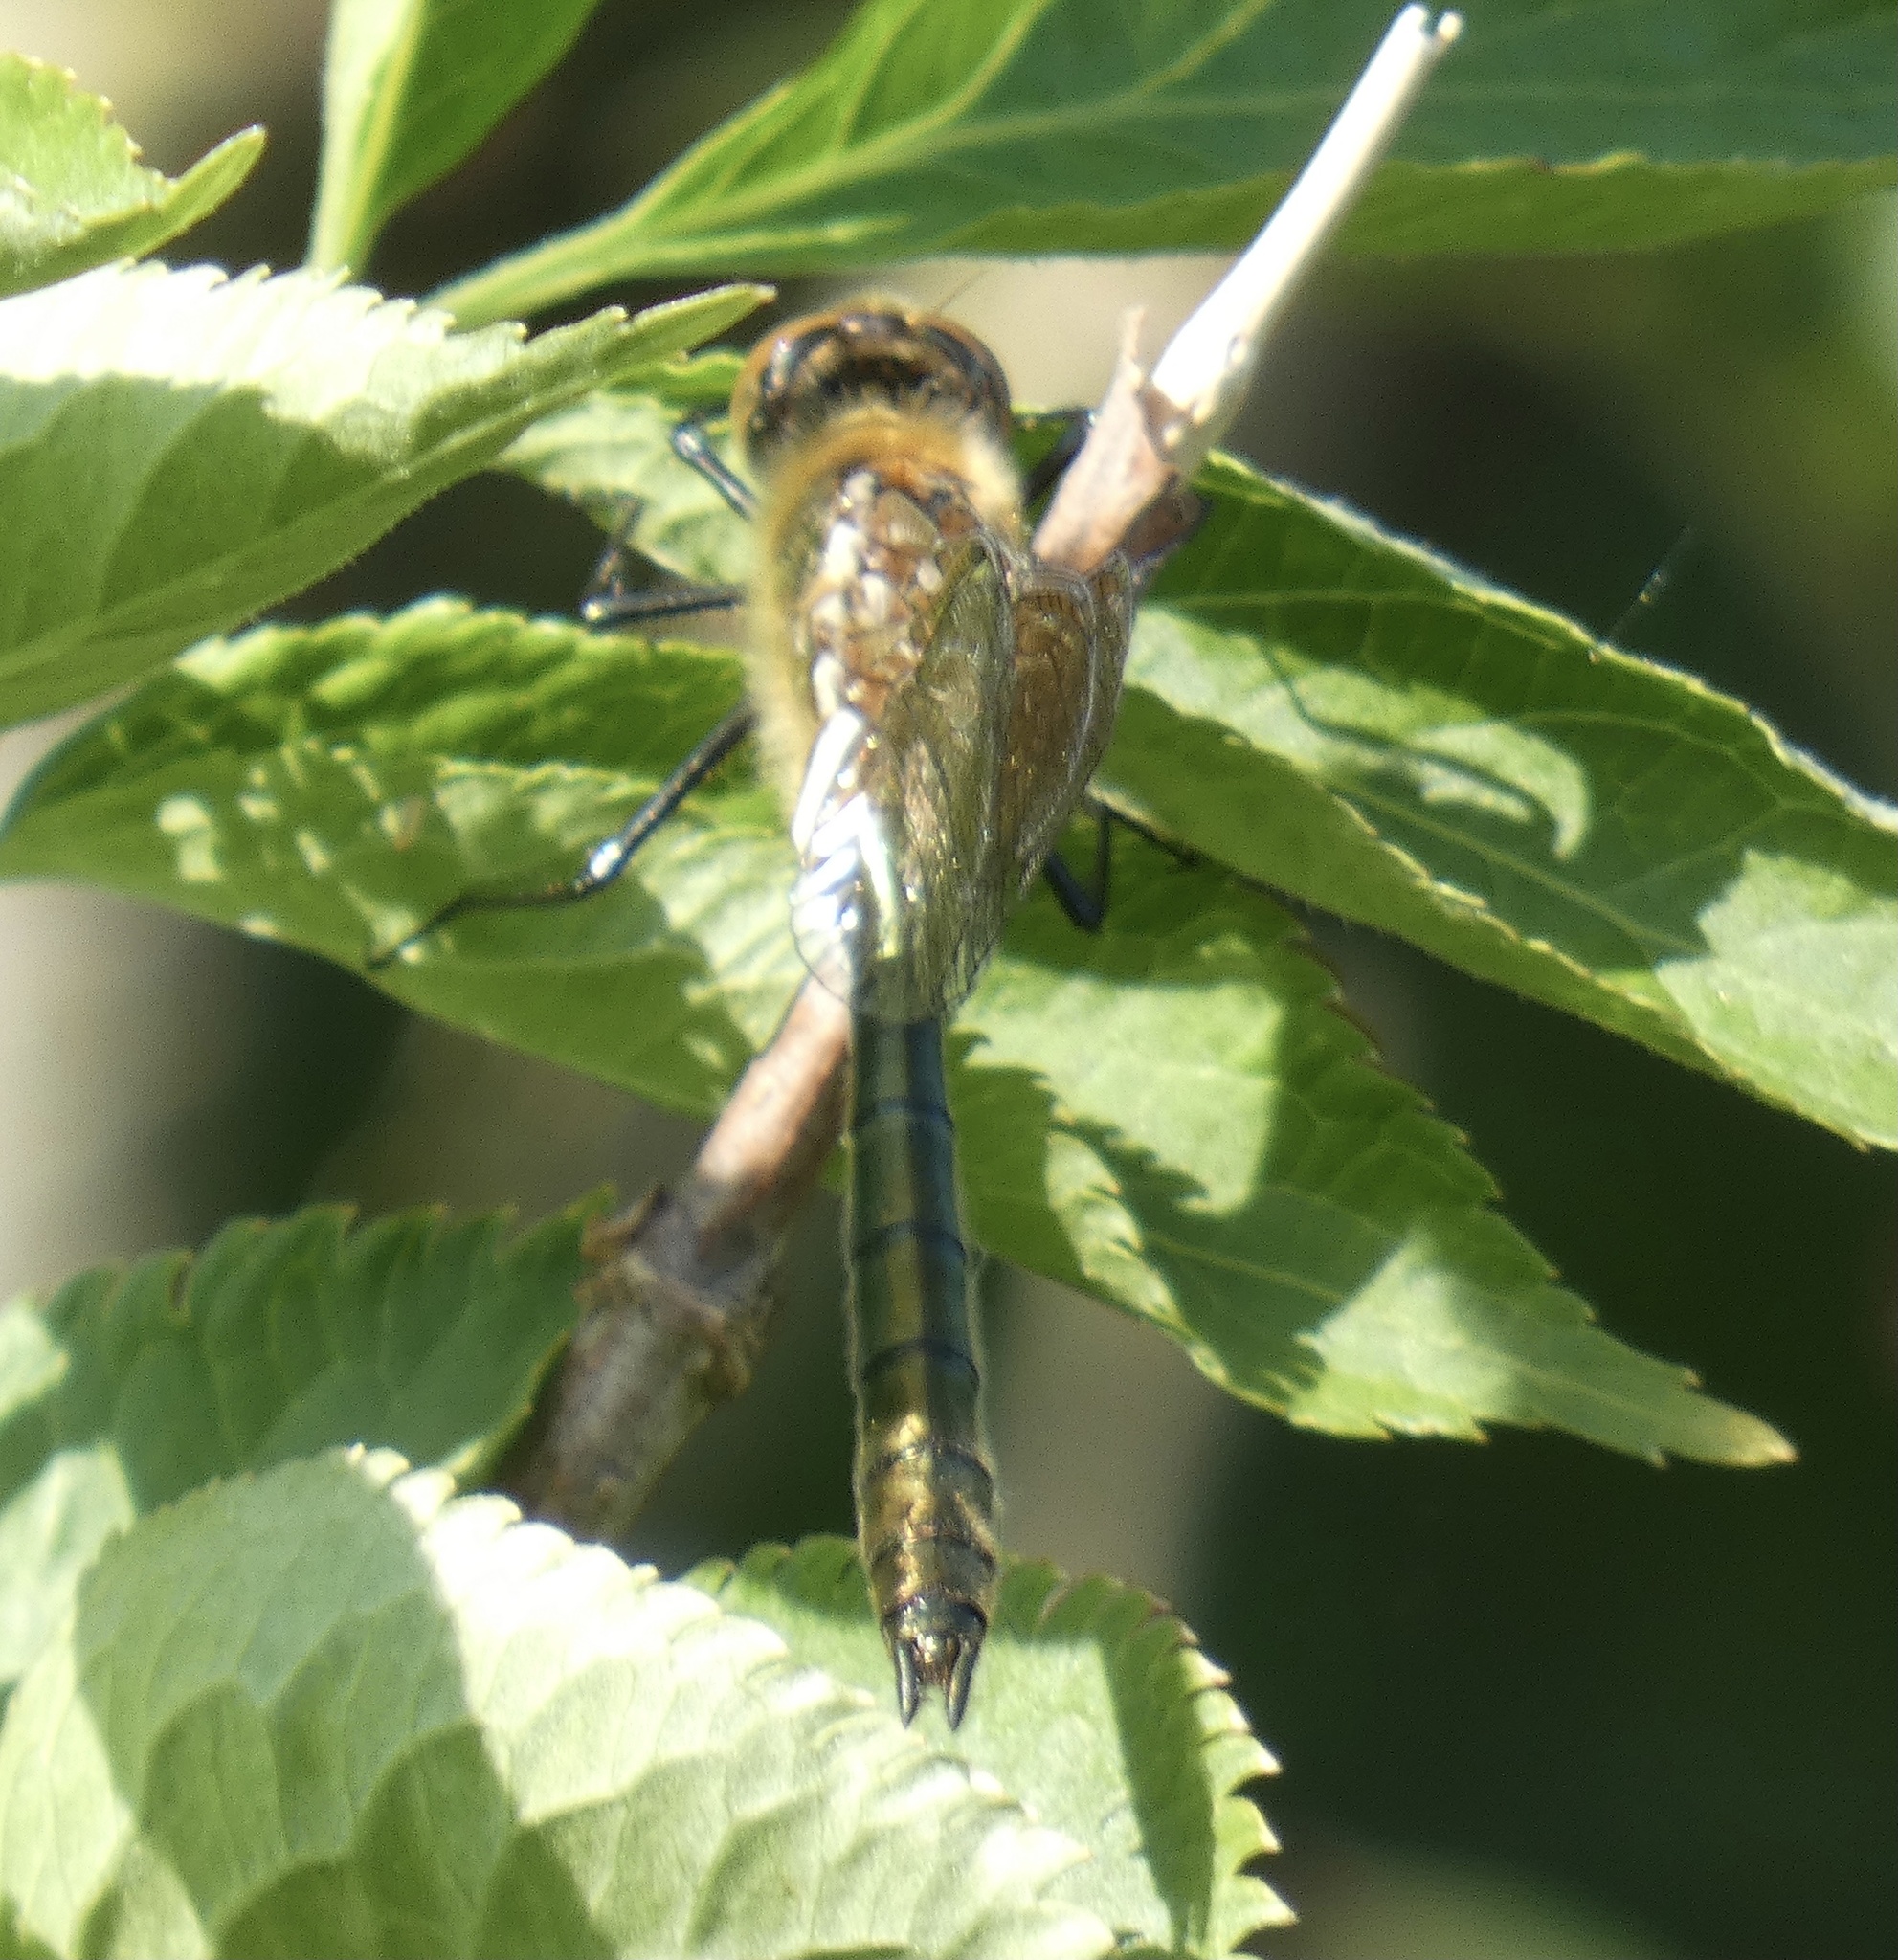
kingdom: Animalia
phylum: Arthropoda
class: Insecta
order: Odonata
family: Corduliidae
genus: Cordulia
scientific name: Cordulia aenea
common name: Downy emerald
